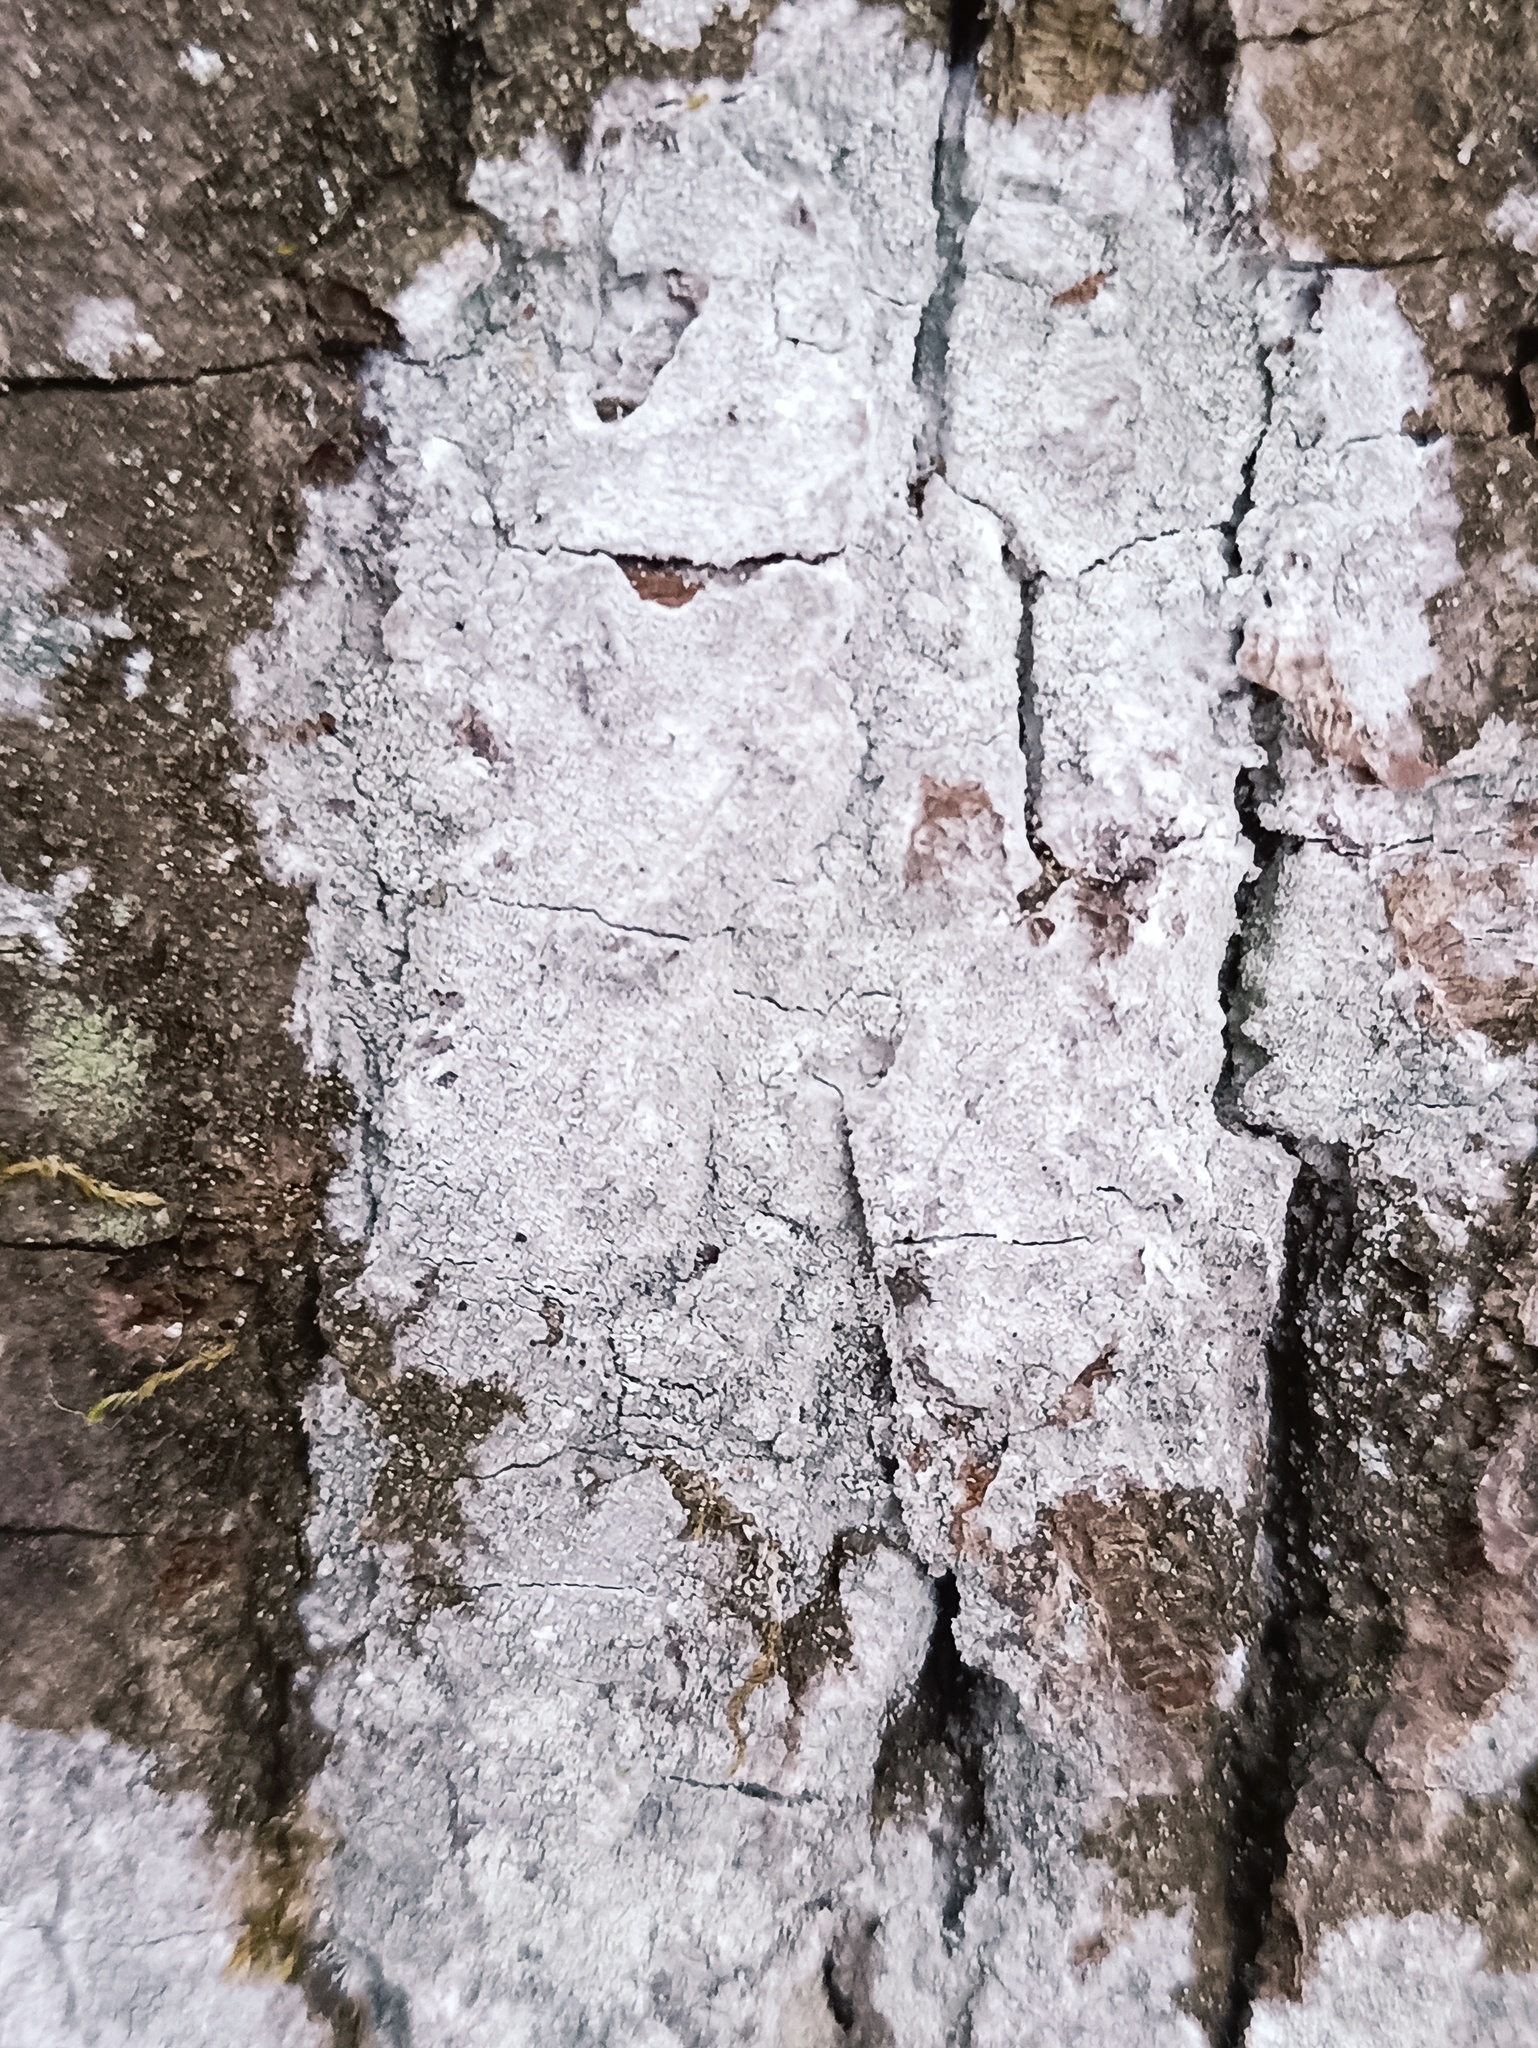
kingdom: Fungi
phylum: Ascomycota
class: Lecanoromycetes
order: Ostropales
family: Phlyctidaceae
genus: Phlyctis
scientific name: Phlyctis argena
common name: Whitewash lichen
